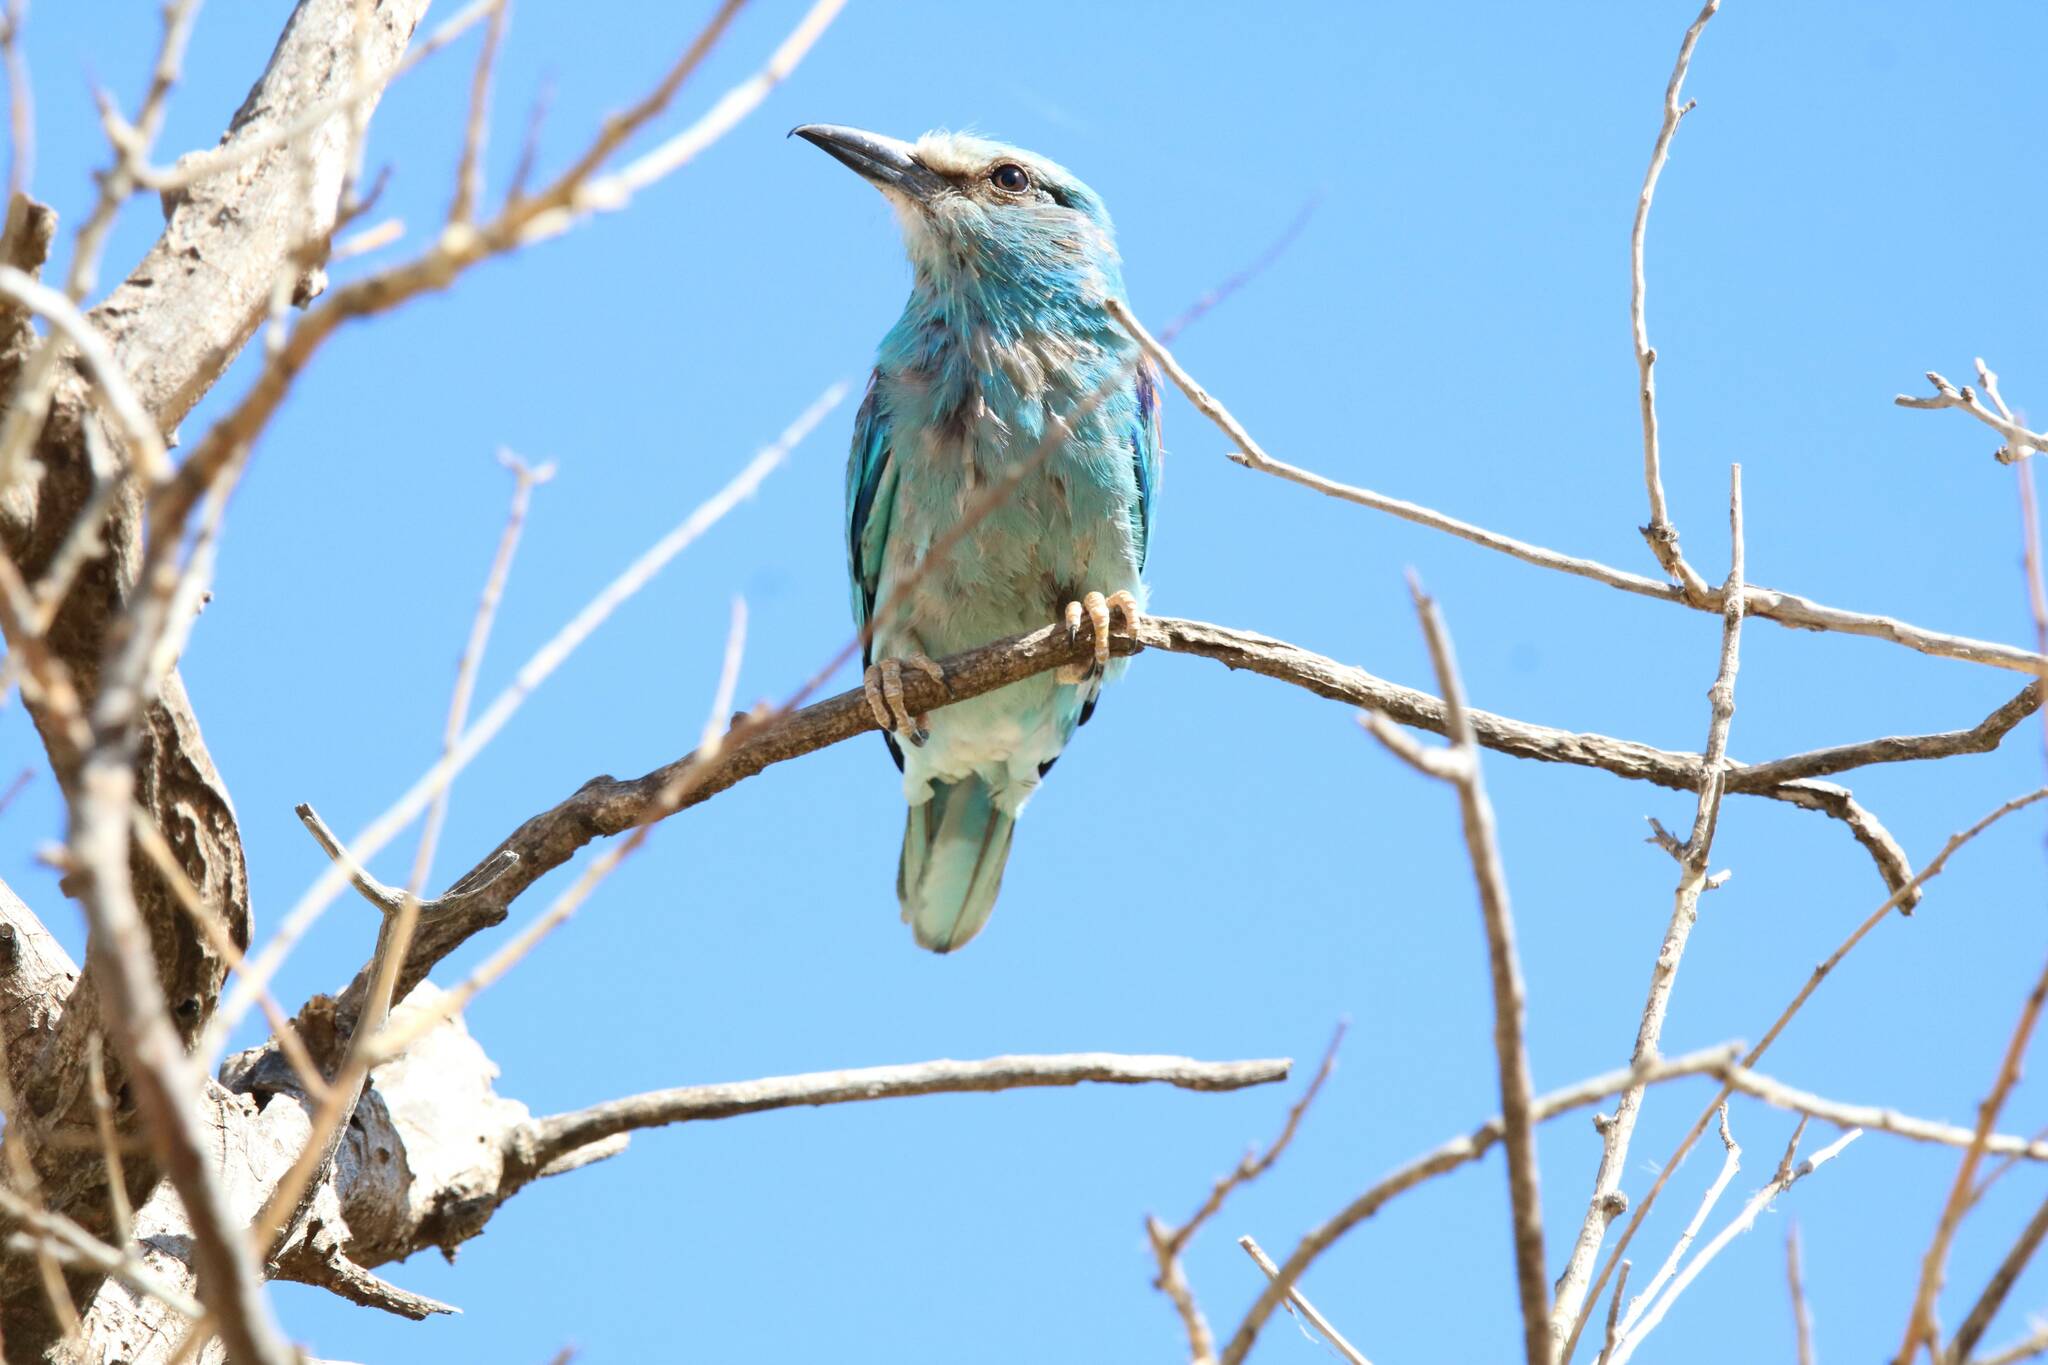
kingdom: Animalia
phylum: Chordata
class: Aves
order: Coraciiformes
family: Coraciidae
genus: Coracias
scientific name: Coracias garrulus
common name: European roller
